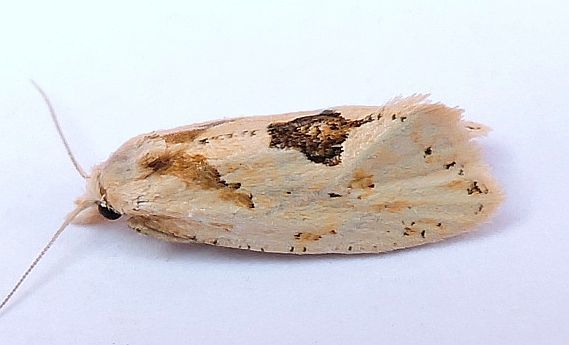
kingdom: Animalia
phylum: Arthropoda
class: Insecta
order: Lepidoptera
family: Tortricidae
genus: Aethes
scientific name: Aethes mymara
